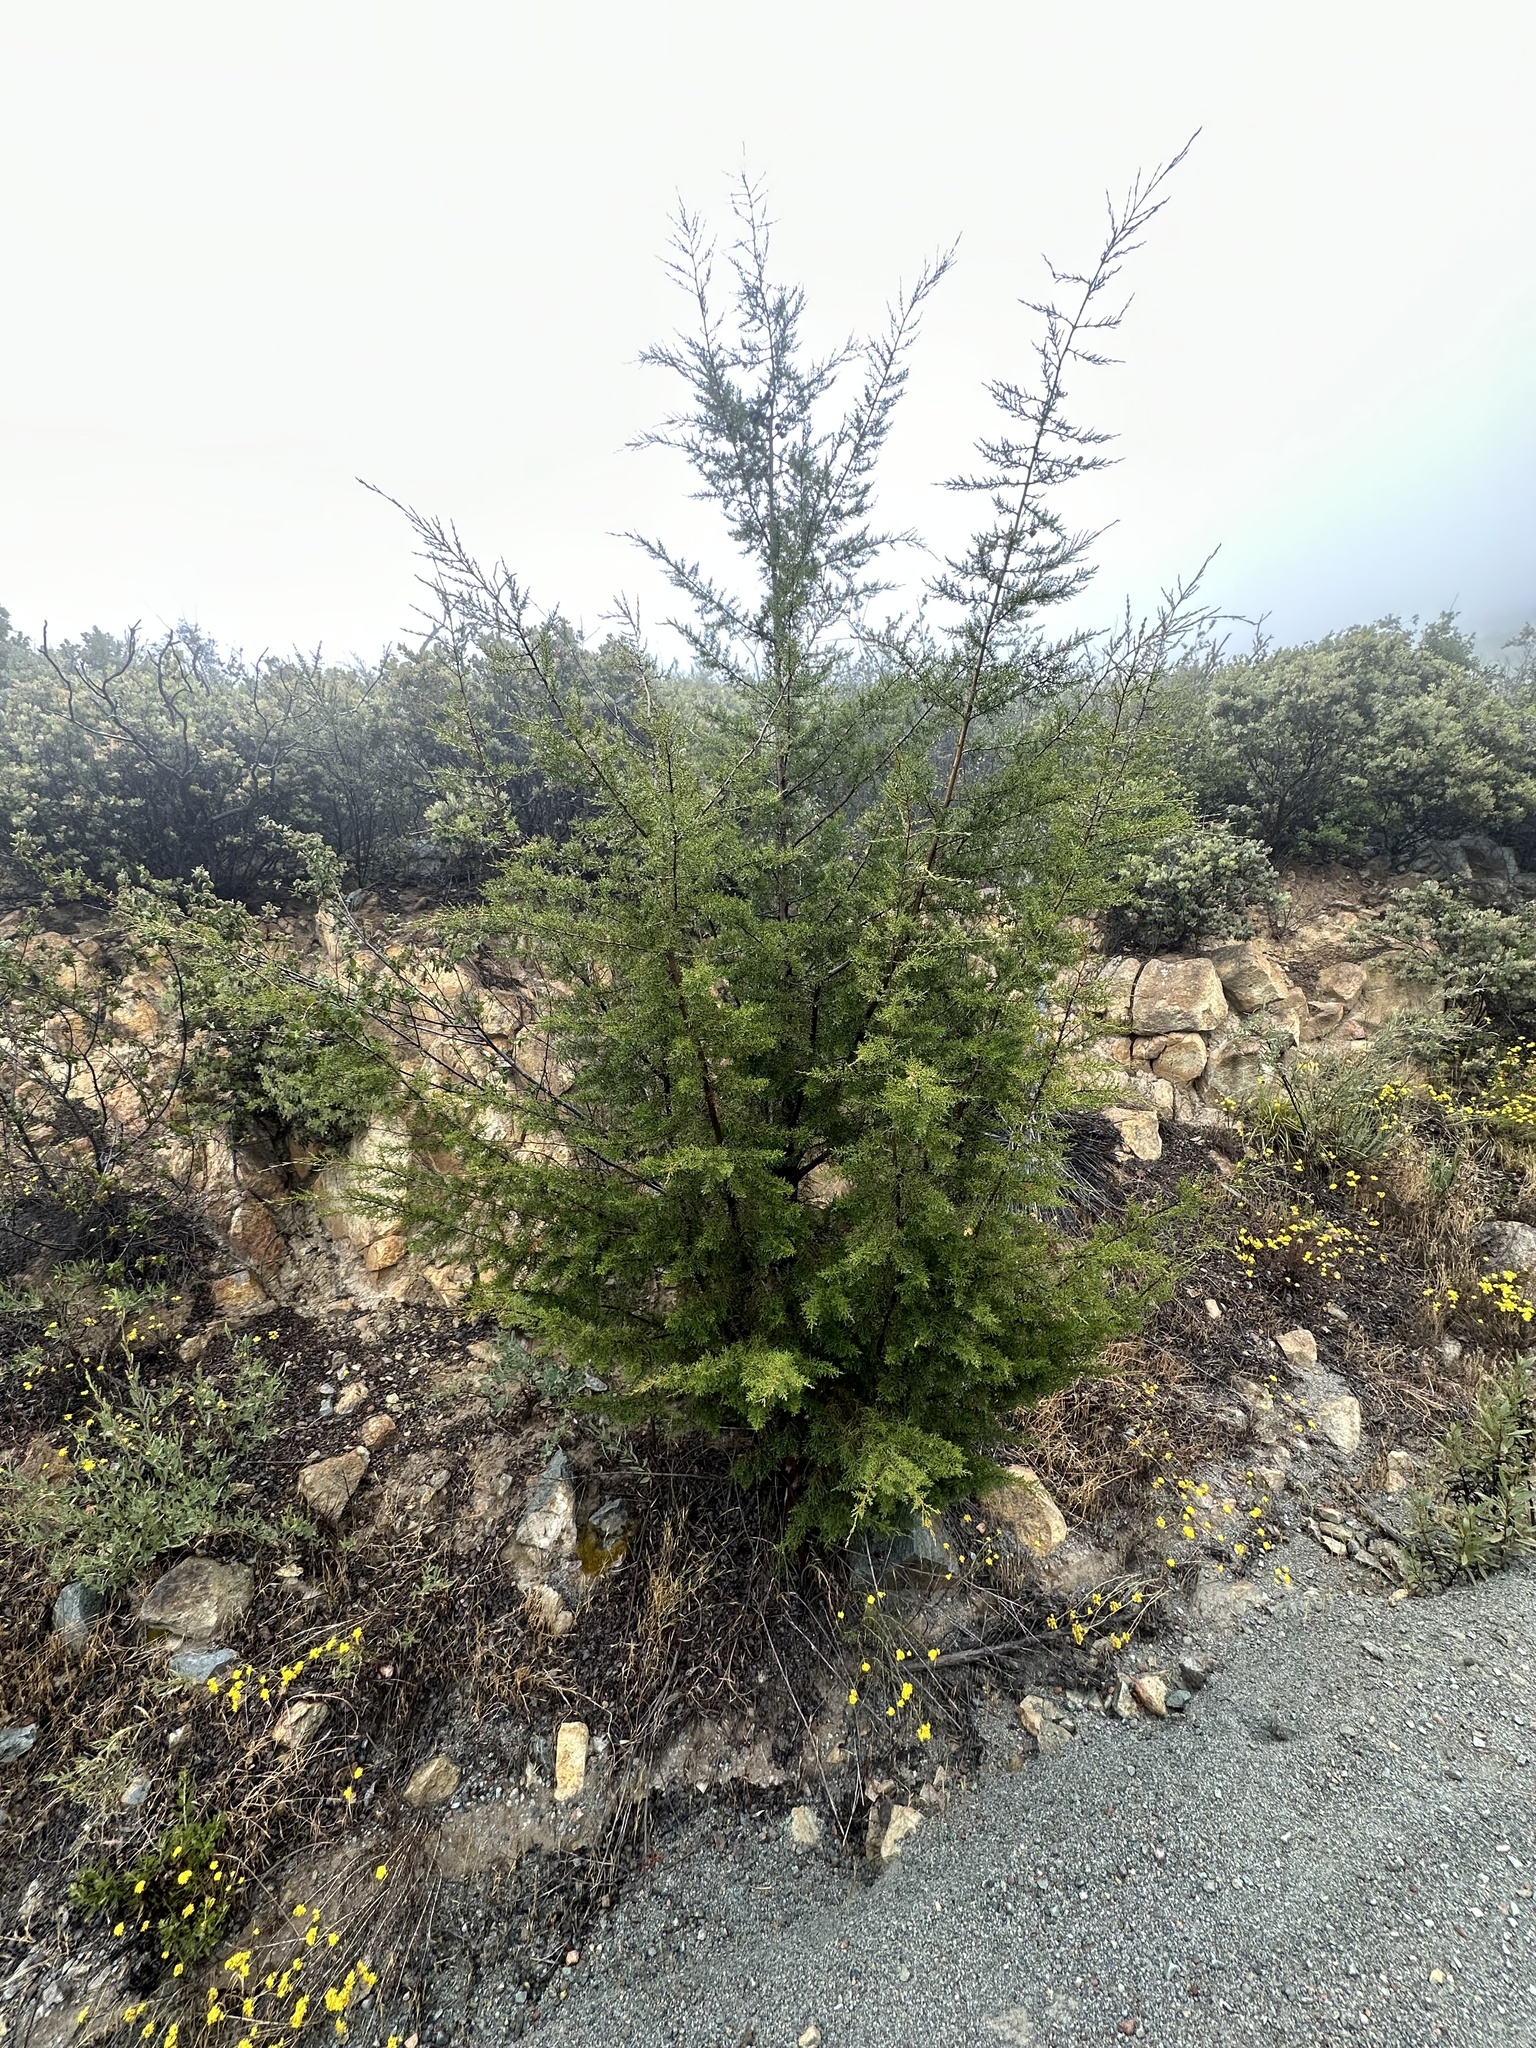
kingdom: Plantae
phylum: Tracheophyta
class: Pinopsida
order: Pinales
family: Cupressaceae
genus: Cupressus
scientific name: Cupressus guadalupensis
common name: Forbes cypress
